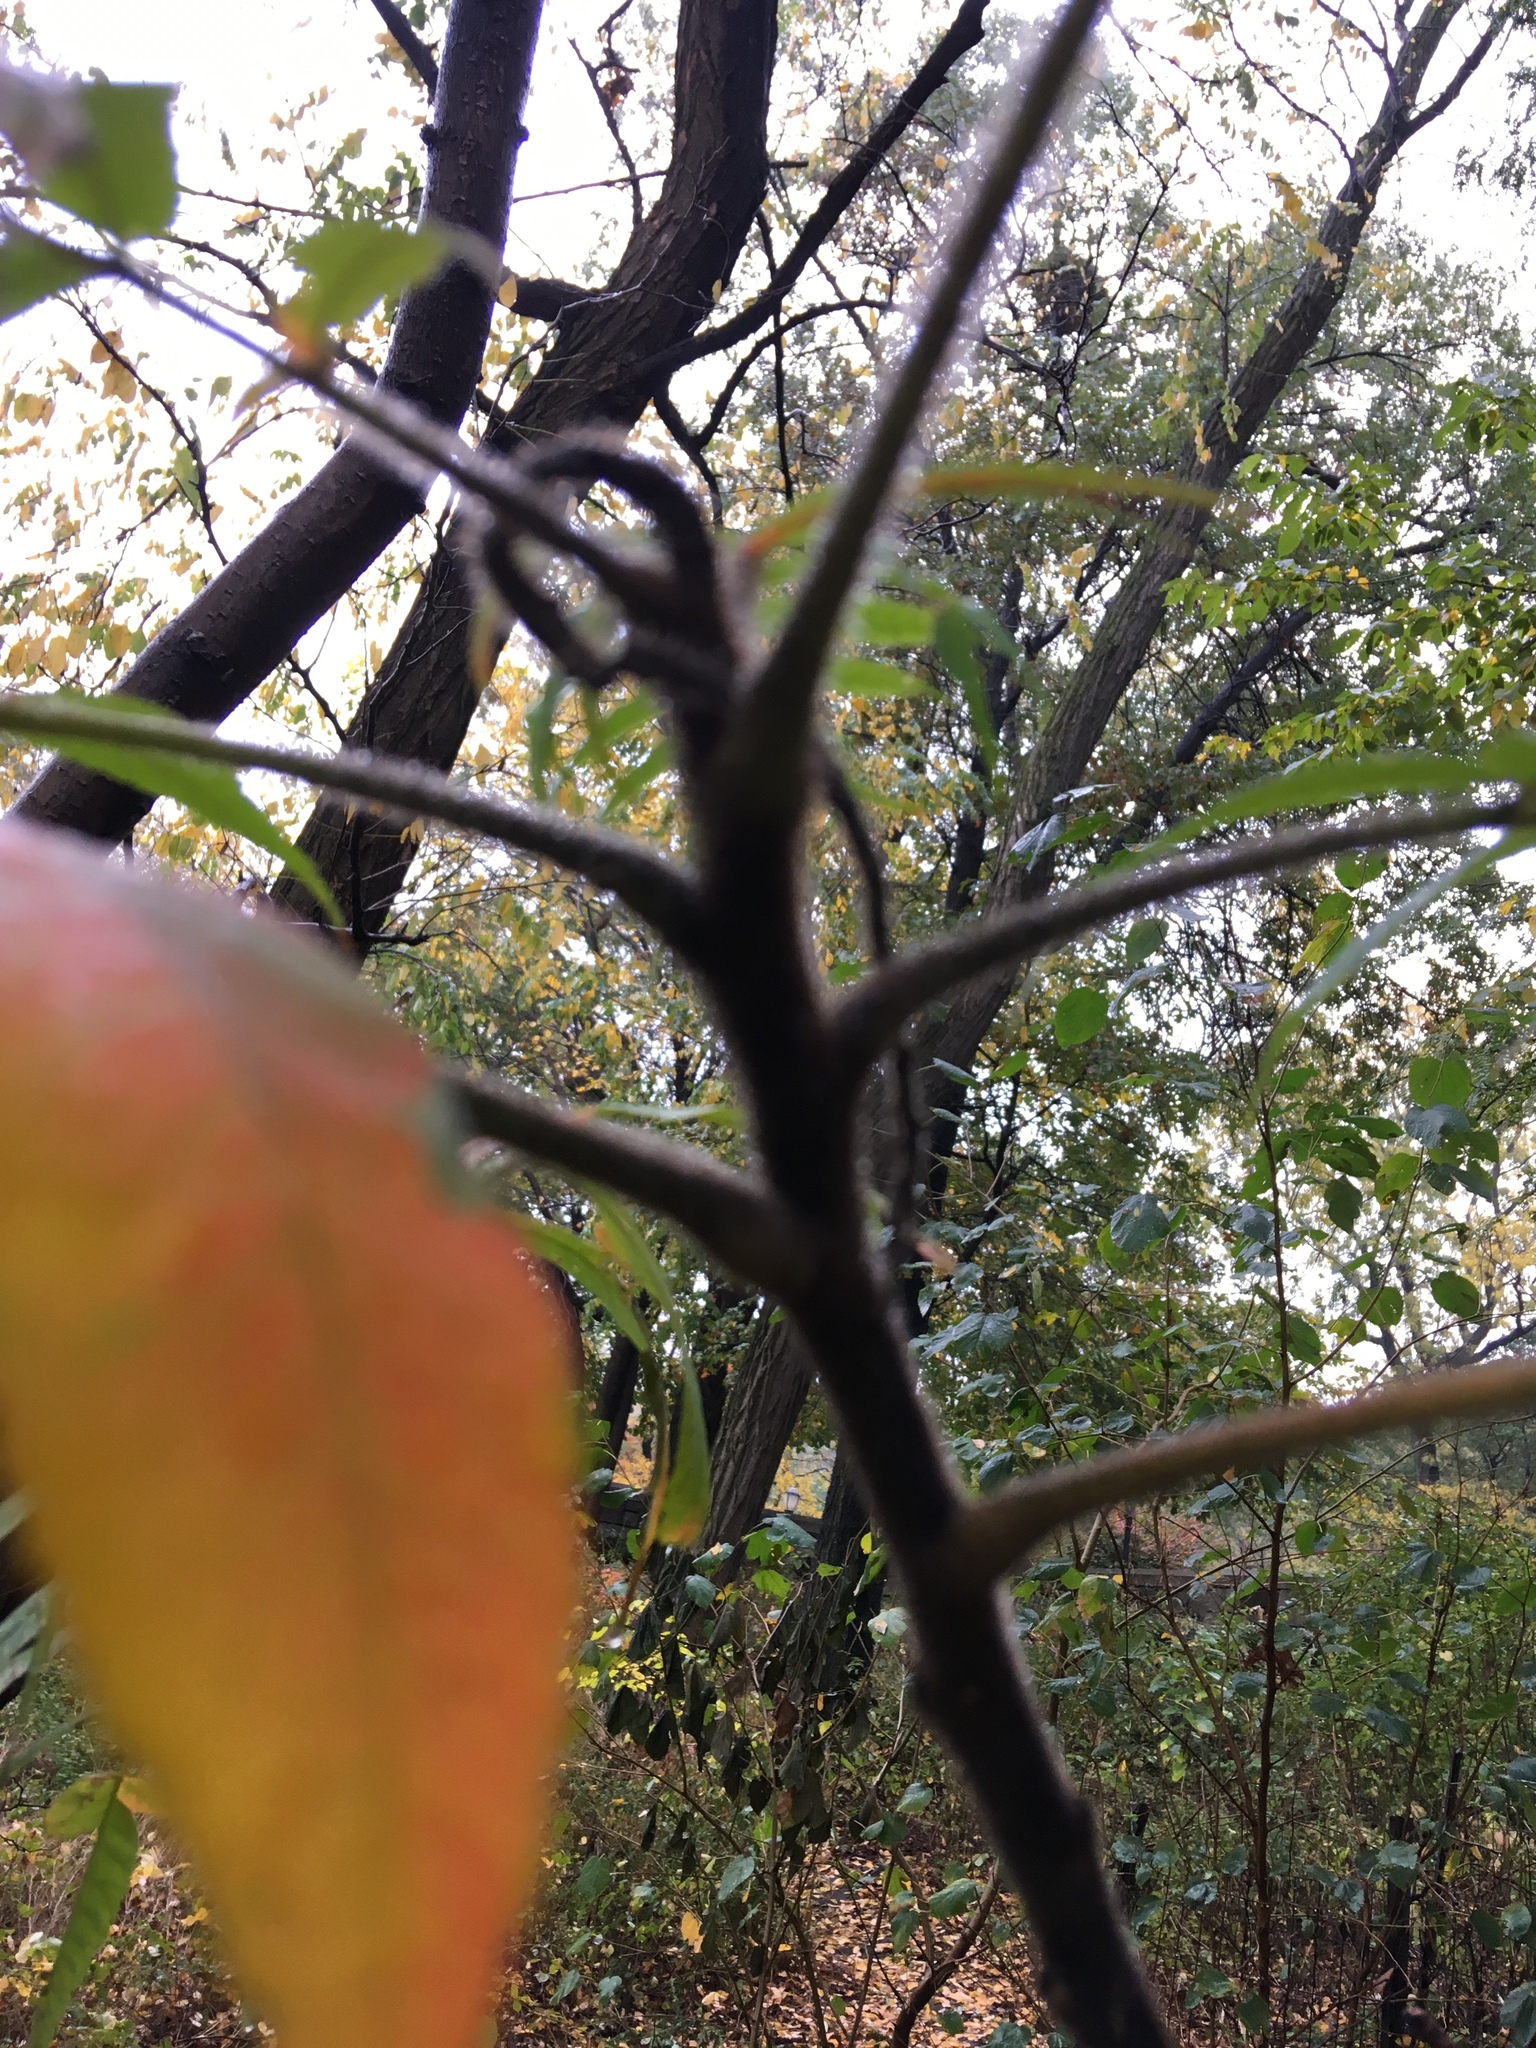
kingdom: Plantae
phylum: Tracheophyta
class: Magnoliopsida
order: Sapindales
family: Anacardiaceae
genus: Rhus
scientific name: Rhus typhina
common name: Staghorn sumac
